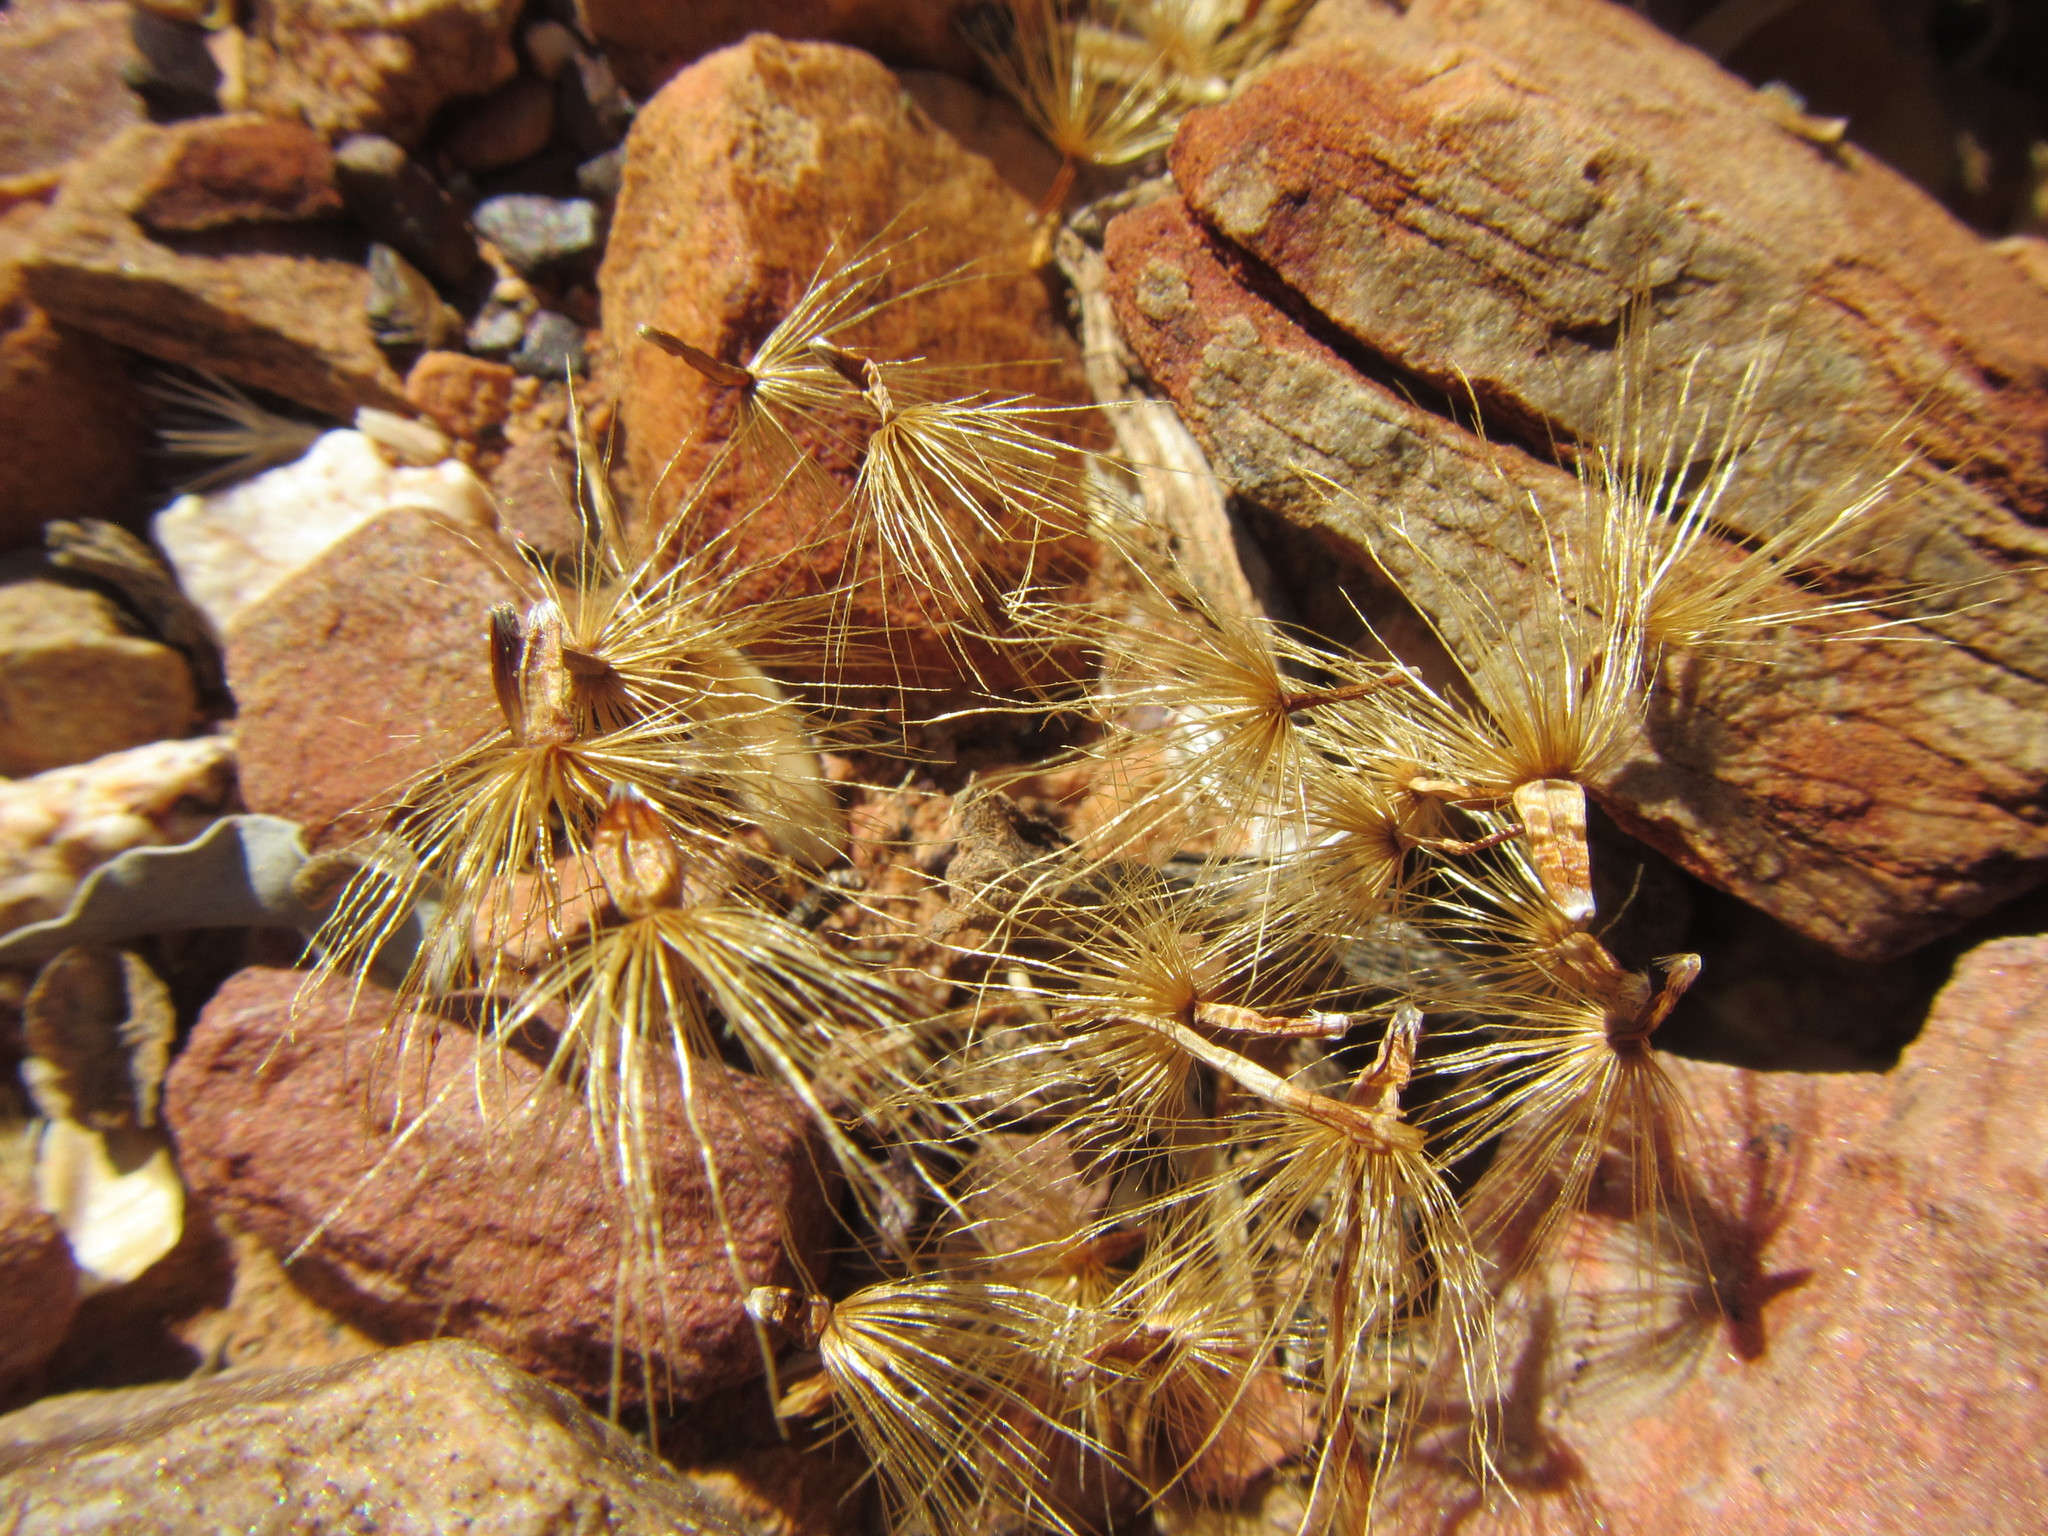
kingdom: Plantae
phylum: Tracheophyta
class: Magnoliopsida
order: Asterales
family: Asteraceae
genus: Pteronia
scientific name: Pteronia hutchinsoniana
